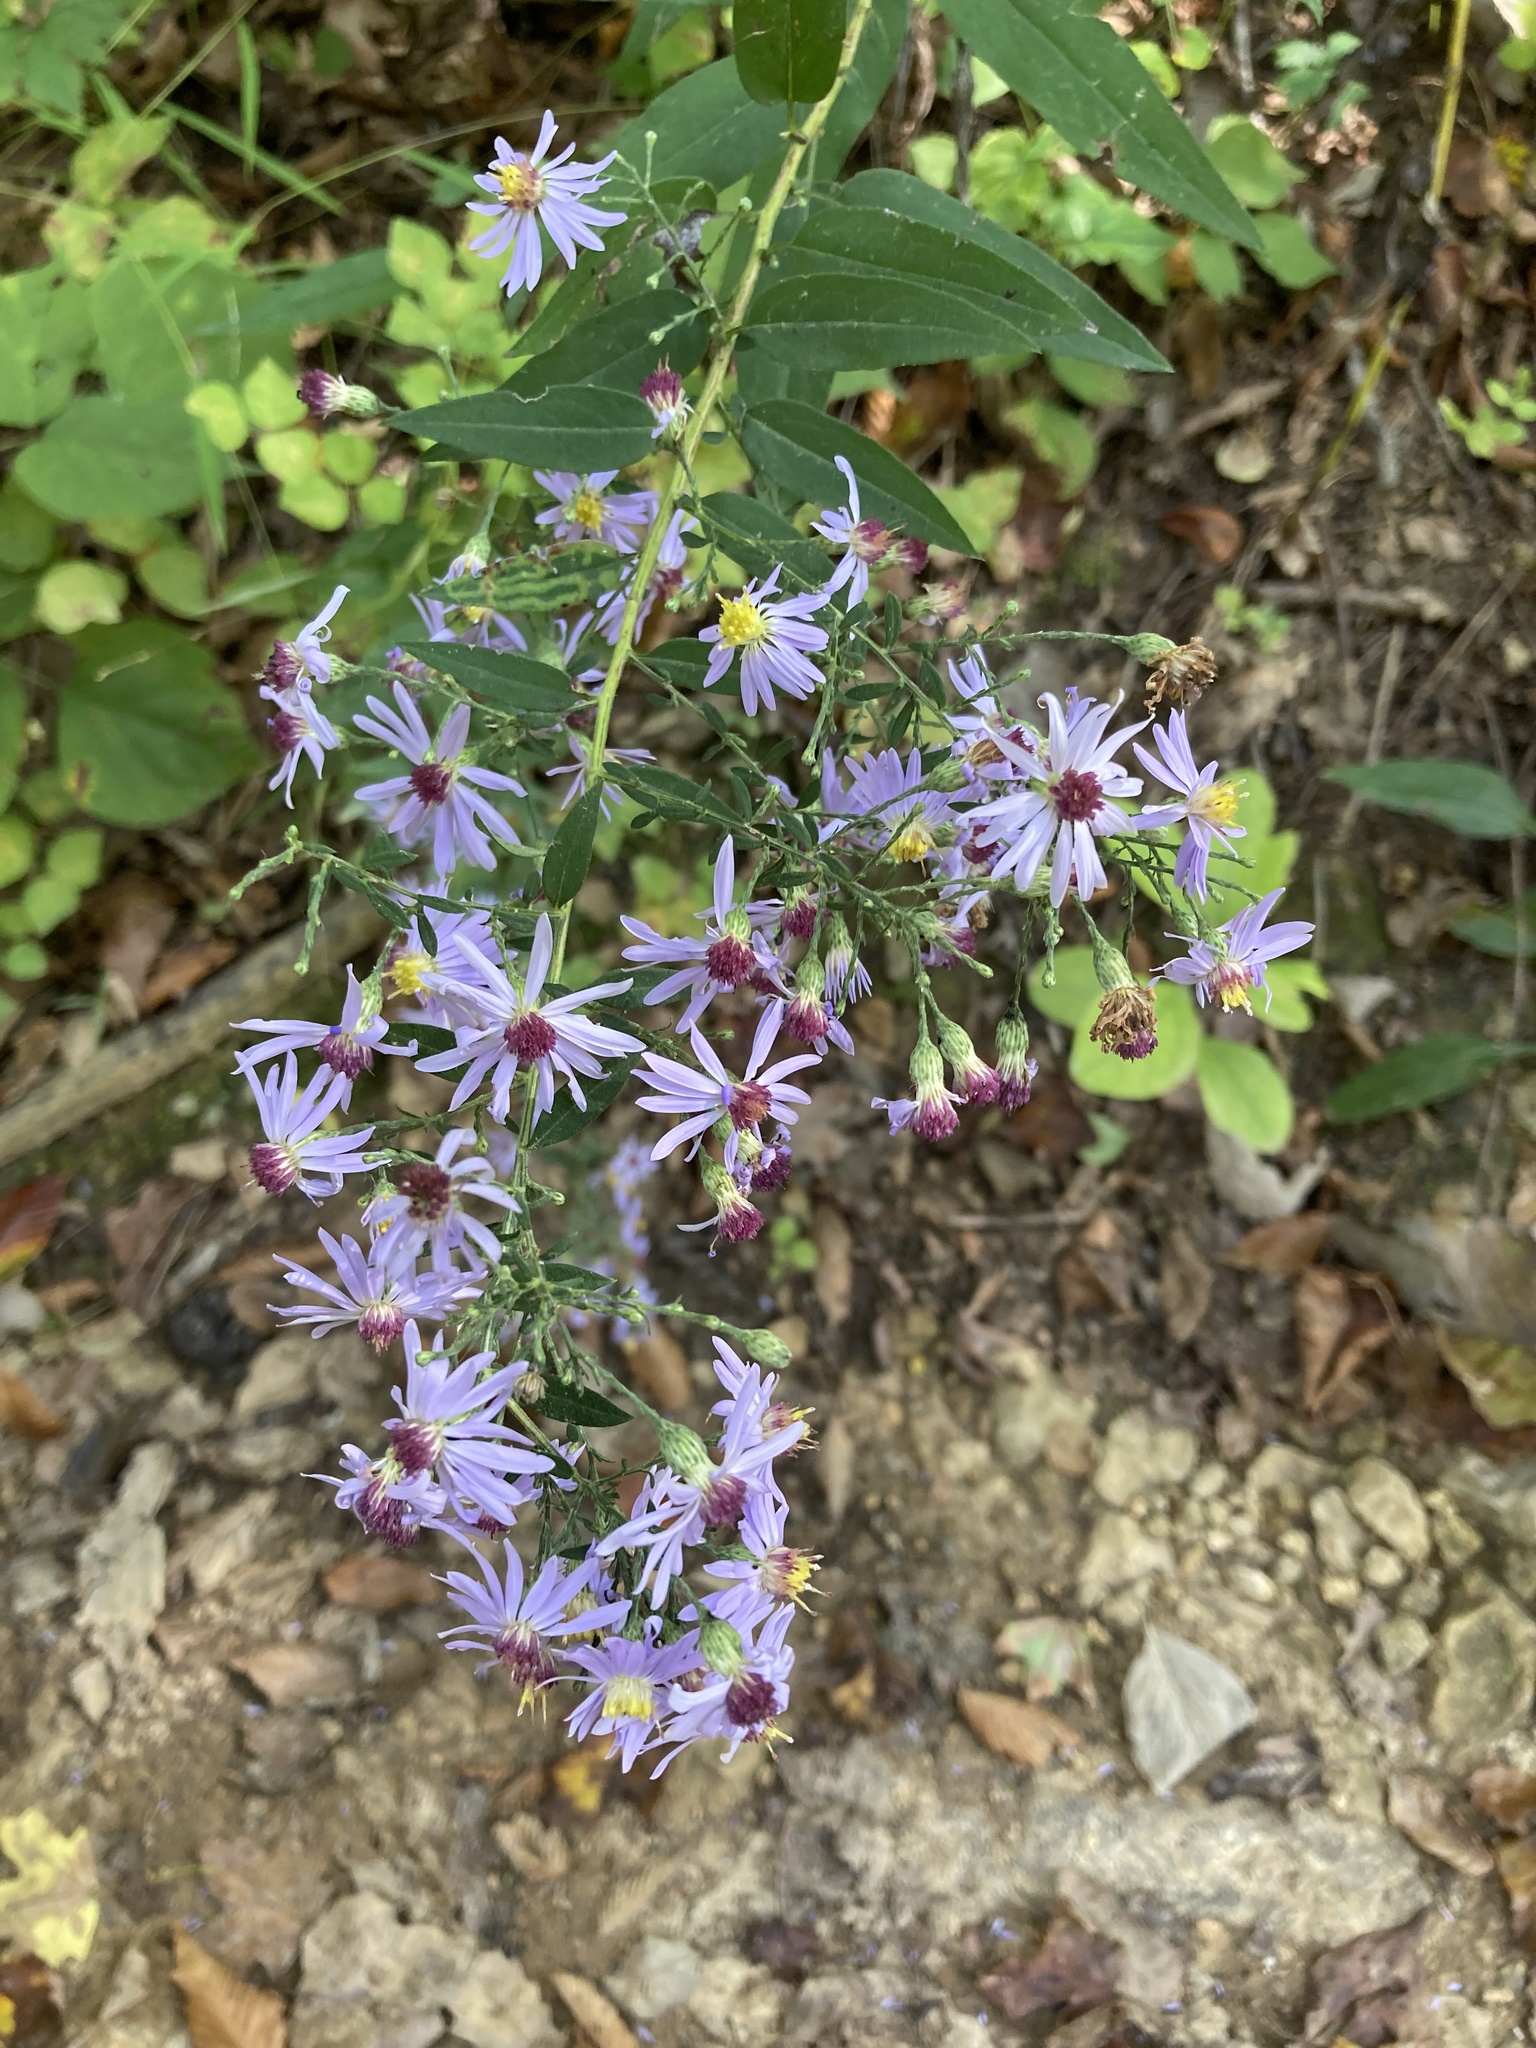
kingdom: Plantae
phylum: Tracheophyta
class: Magnoliopsida
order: Asterales
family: Asteraceae
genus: Symphyotrichum
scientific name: Symphyotrichum shortii
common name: Short's aster
